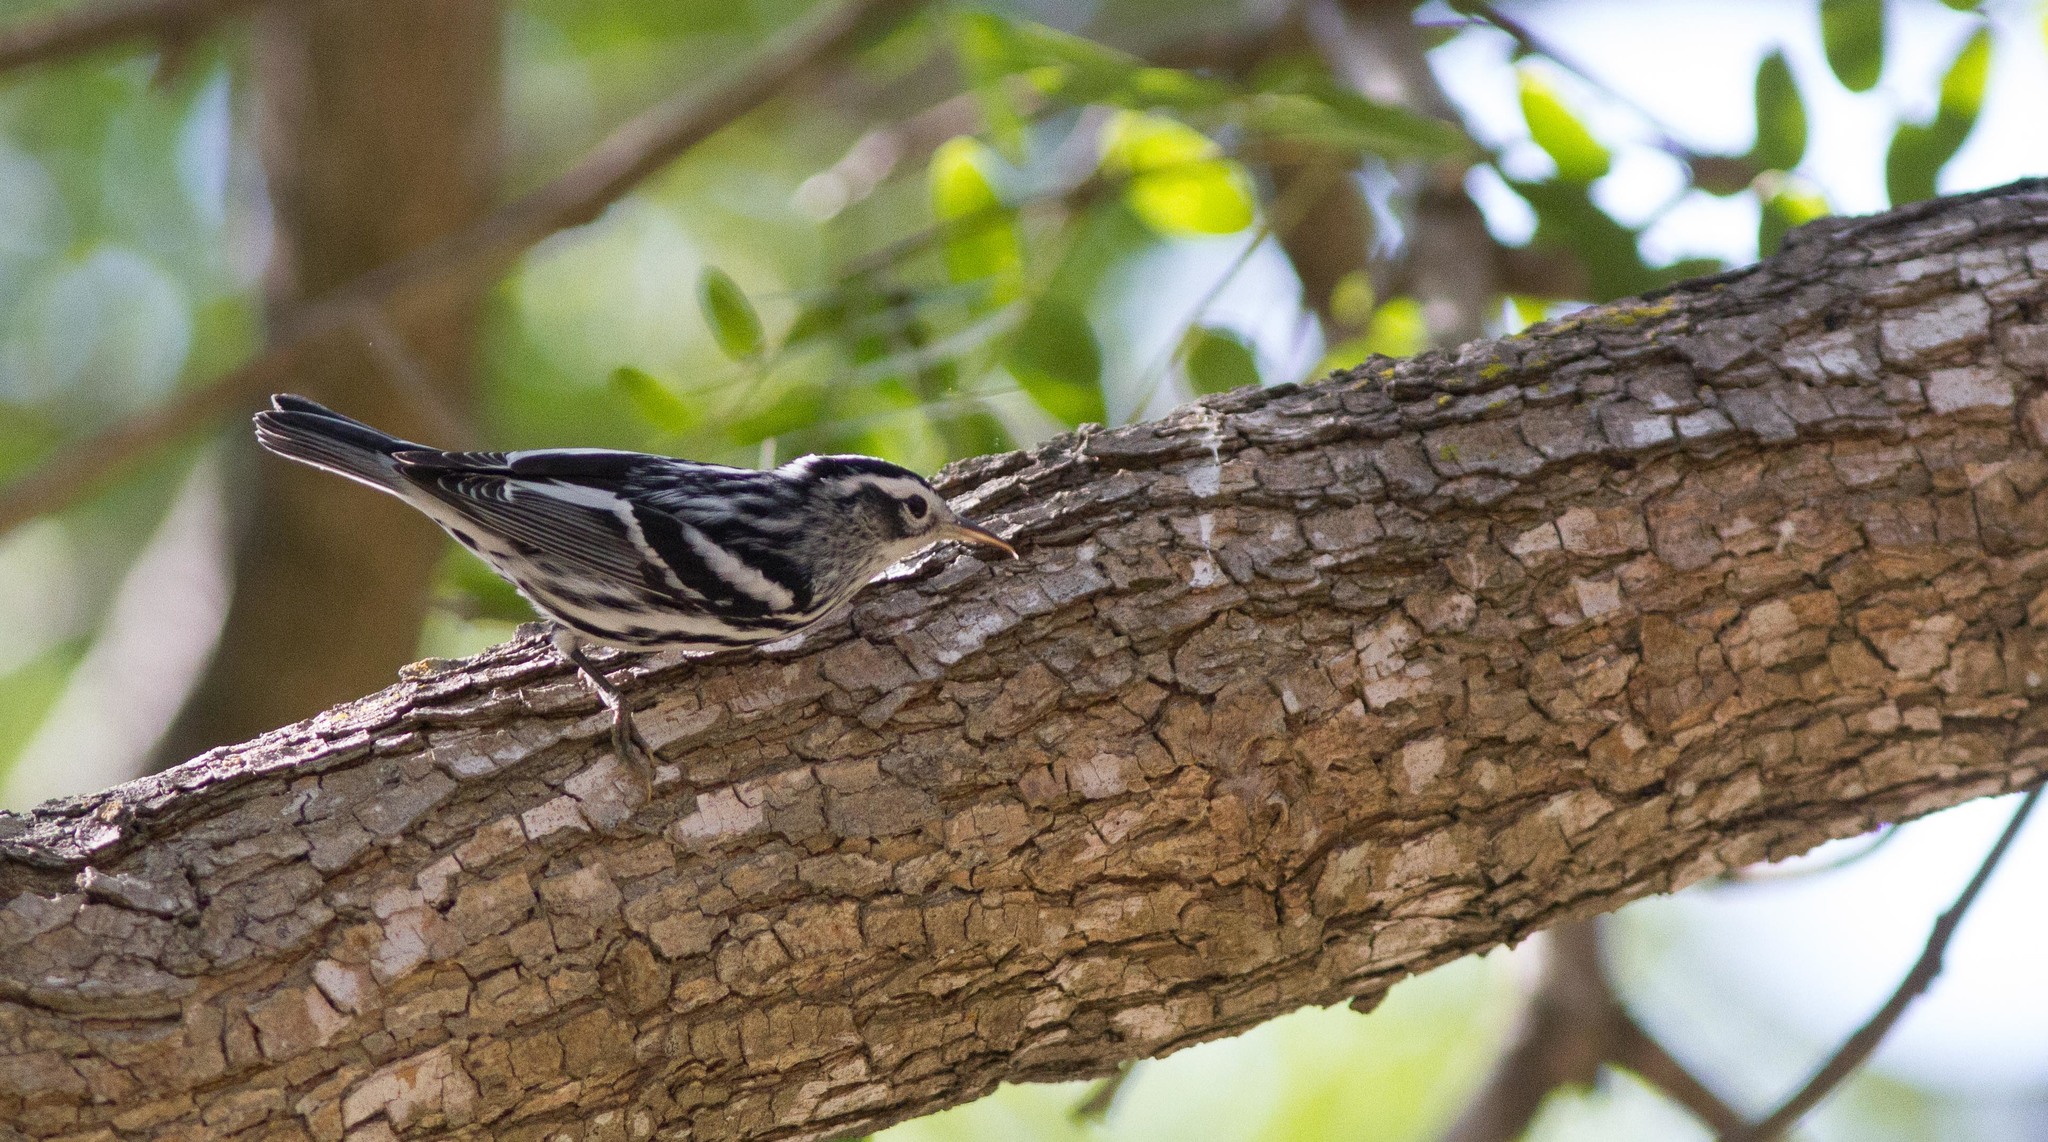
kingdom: Animalia
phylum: Chordata
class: Aves
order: Passeriformes
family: Parulidae
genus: Mniotilta
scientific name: Mniotilta varia
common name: Black-and-white warbler
